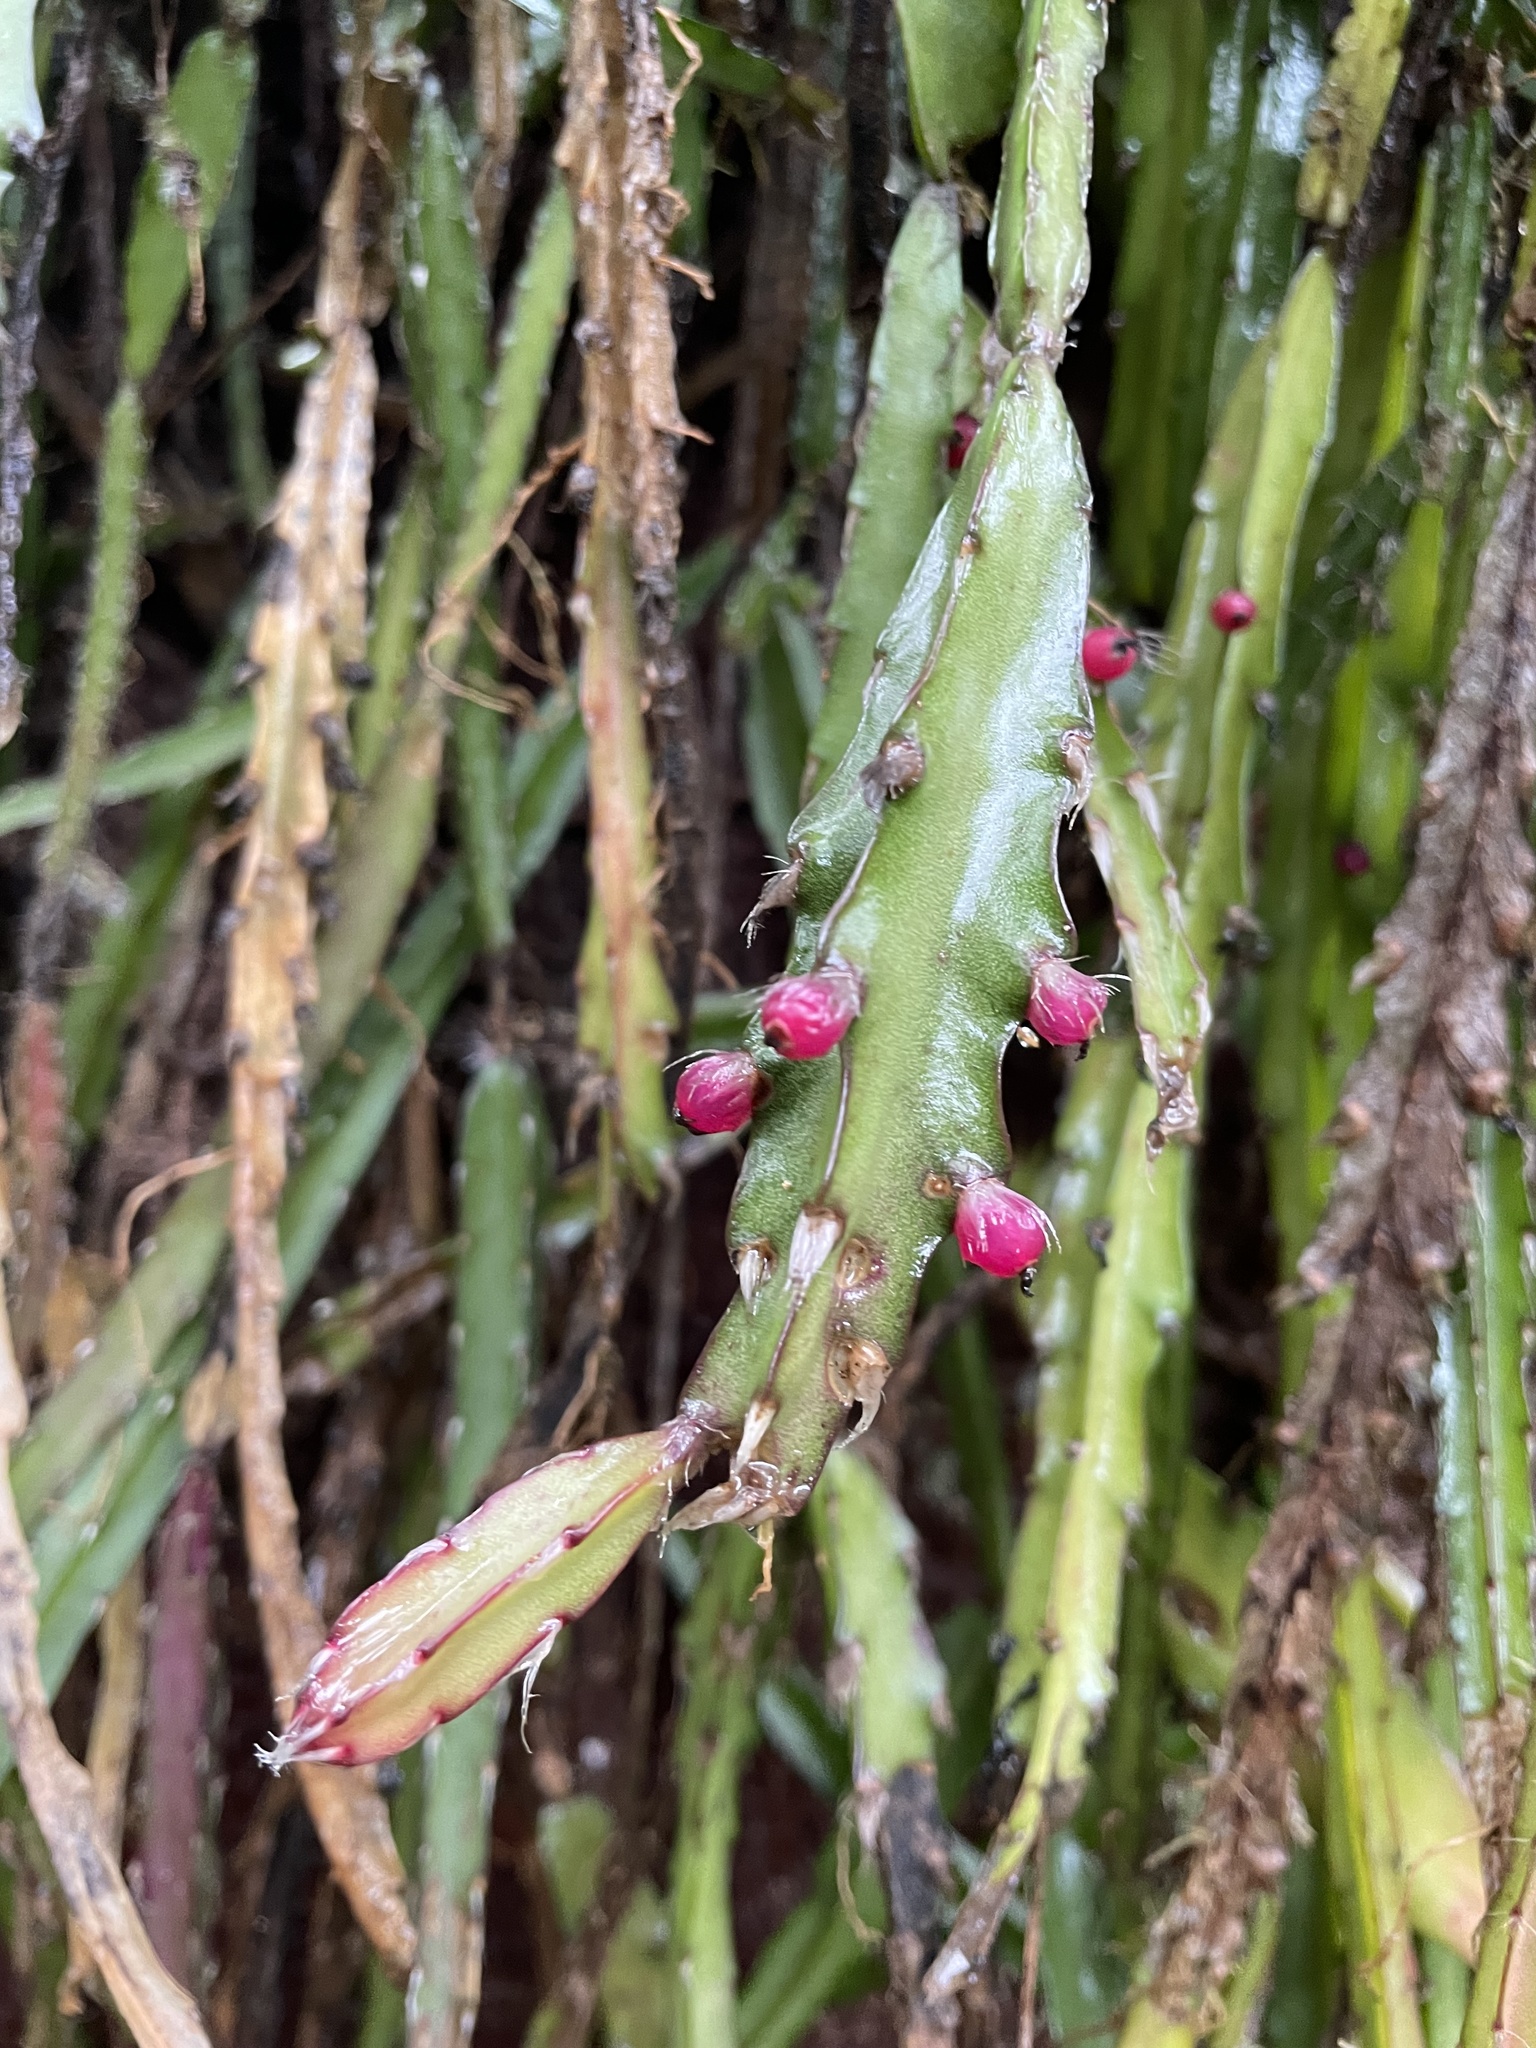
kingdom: Plantae
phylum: Tracheophyta
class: Magnoliopsida
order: Caryophyllales
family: Cactaceae
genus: Lepismium
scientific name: Lepismium cruciforme
